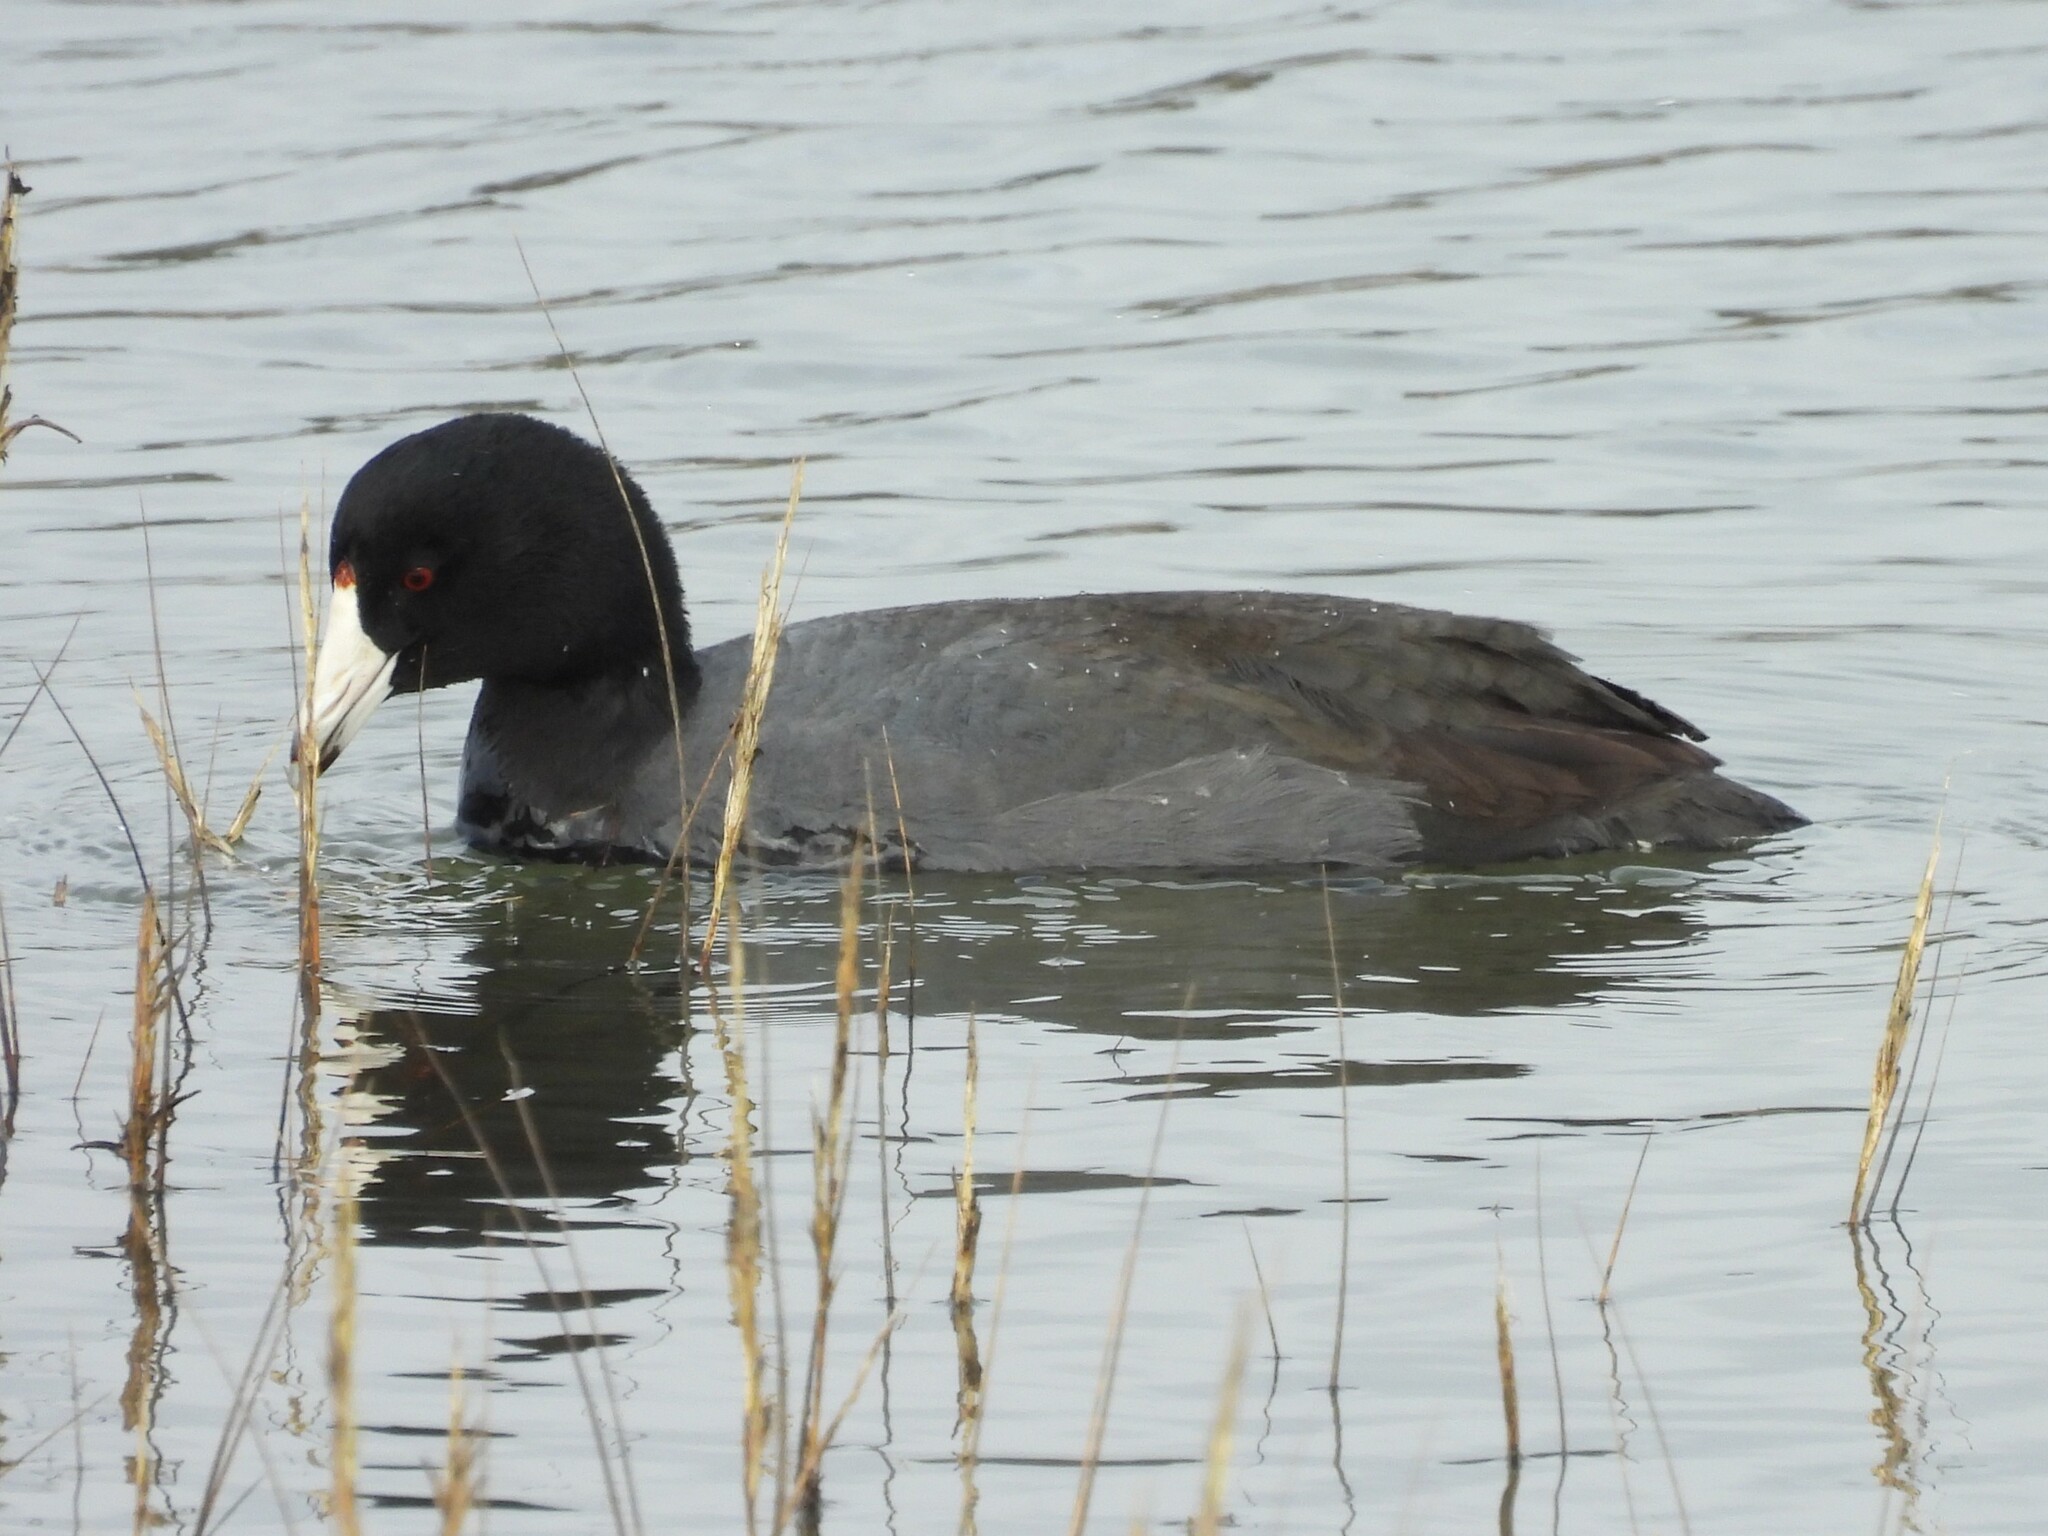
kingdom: Animalia
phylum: Chordata
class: Aves
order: Gruiformes
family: Rallidae
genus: Fulica
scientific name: Fulica americana
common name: American coot
